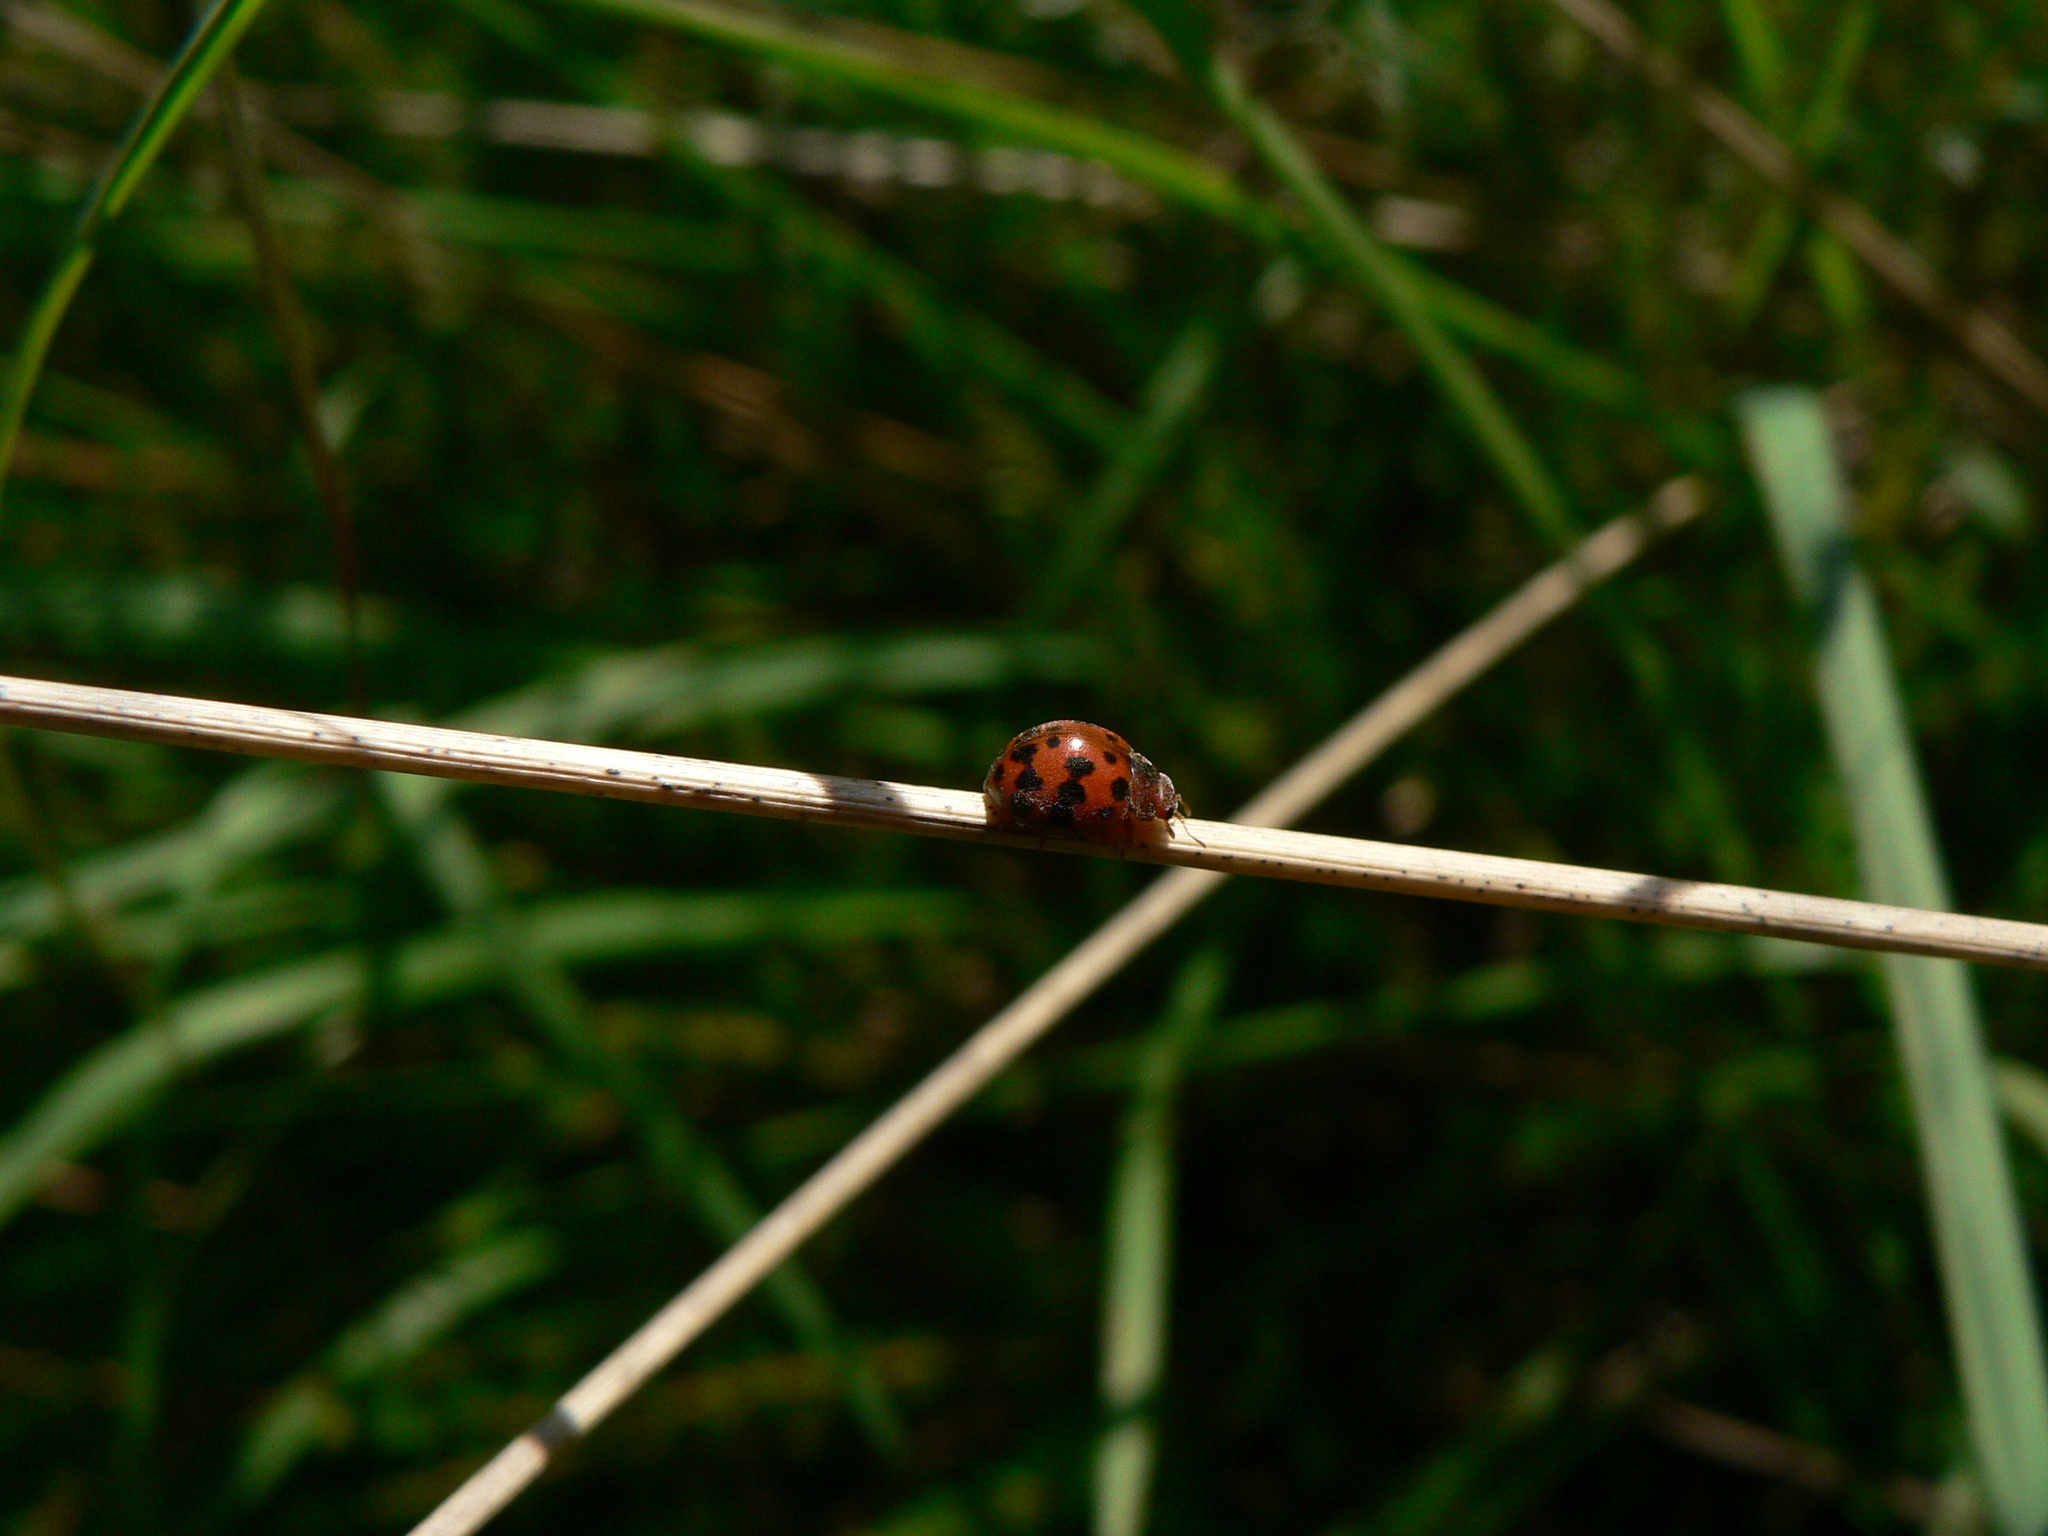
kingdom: Animalia
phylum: Arthropoda
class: Insecta
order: Coleoptera
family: Coccinellidae
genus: Subcoccinella
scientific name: Subcoccinella vigintiquatuorpunctata
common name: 24-spot ladybird
